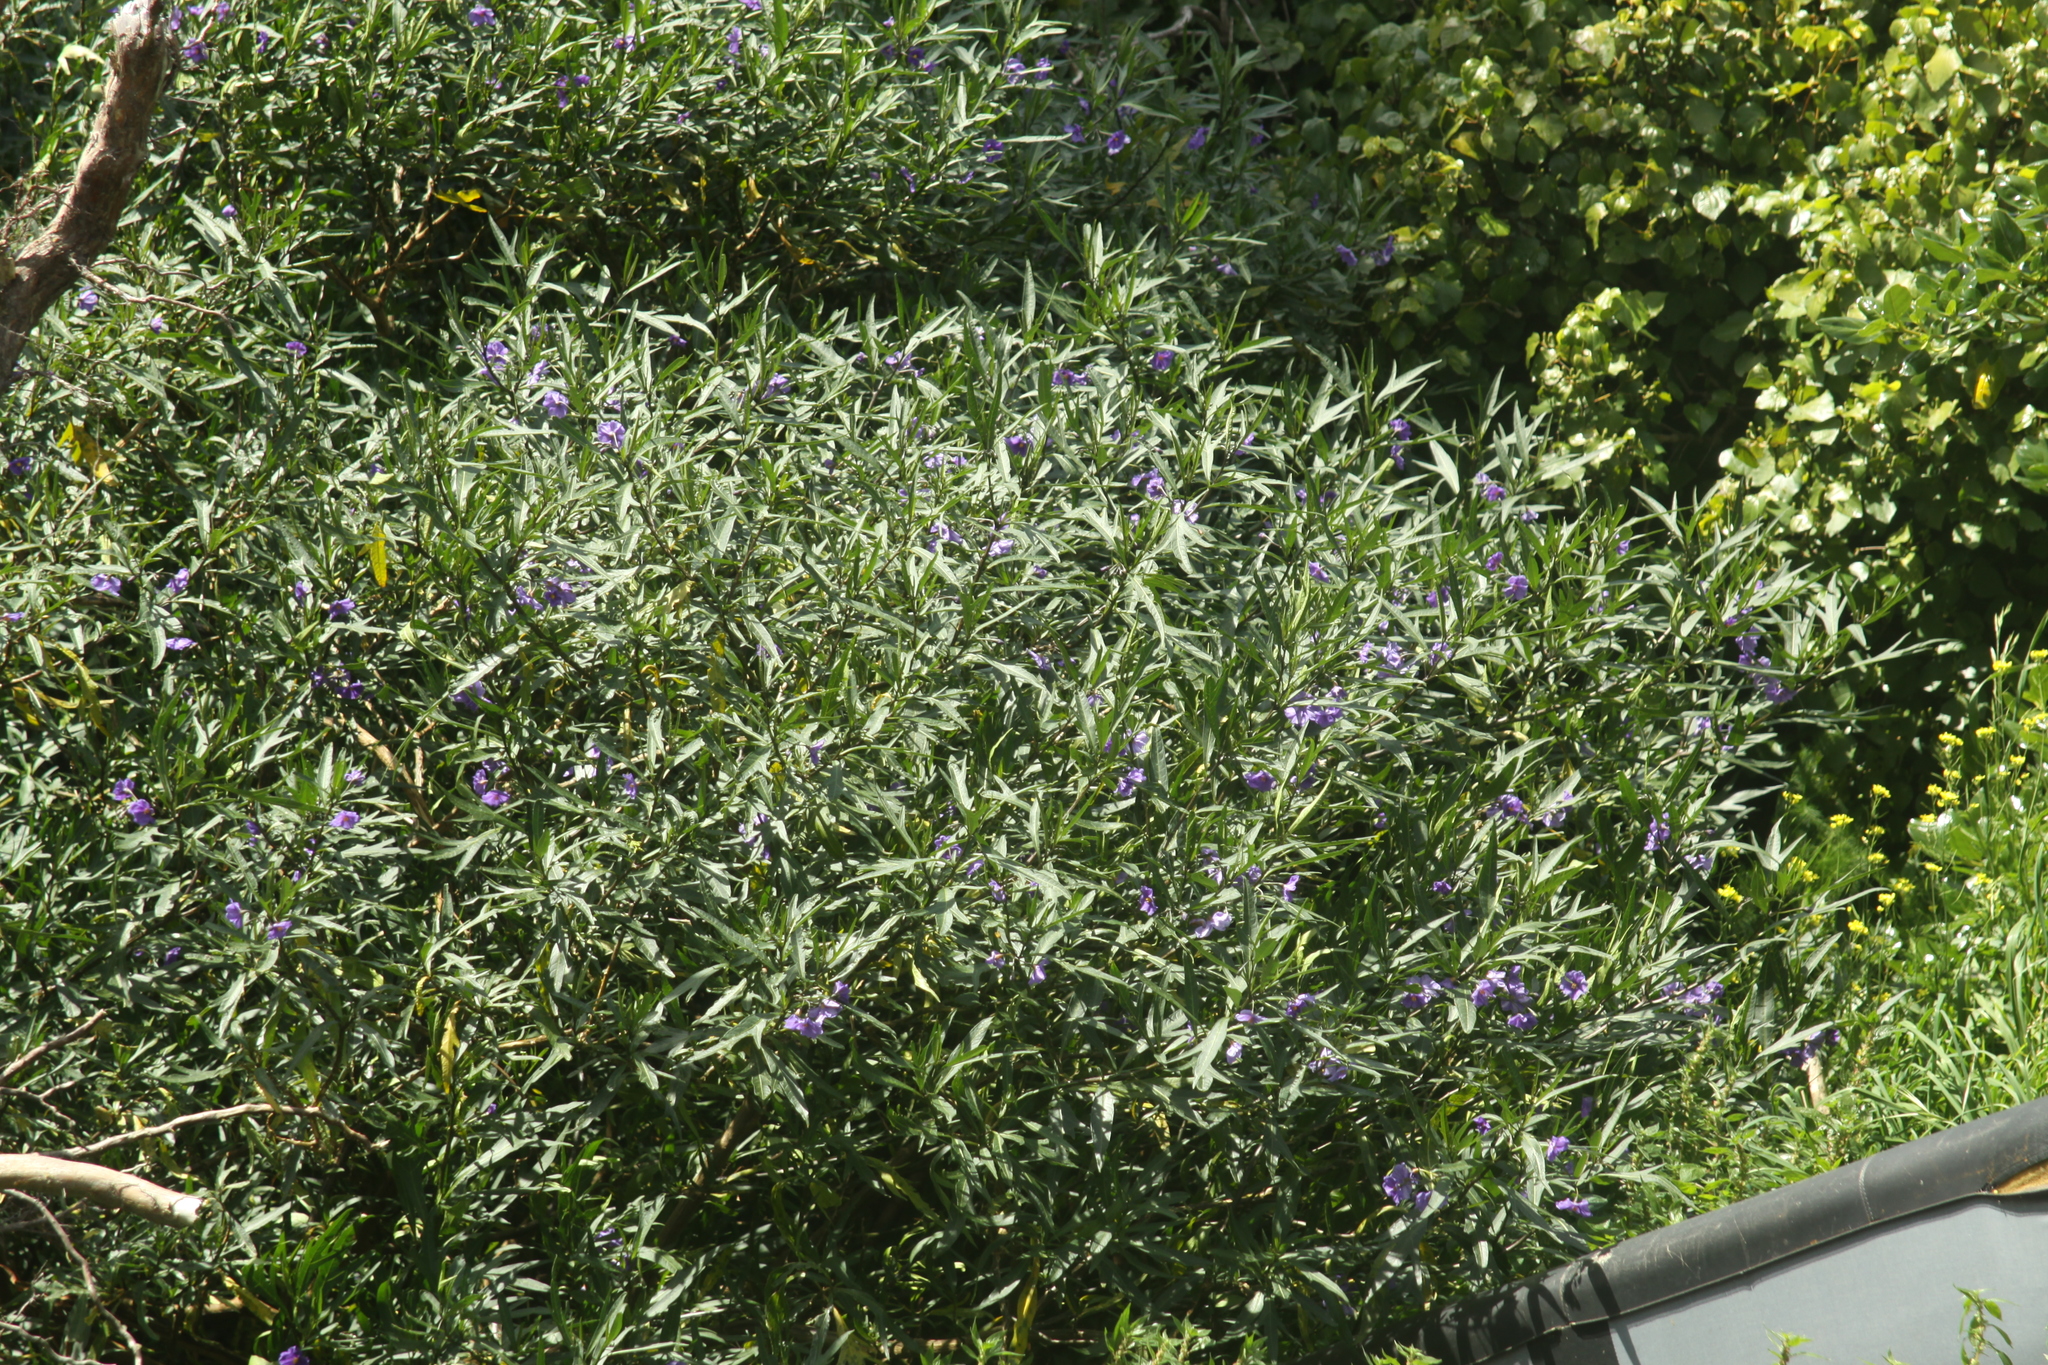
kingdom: Plantae
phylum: Tracheophyta
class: Magnoliopsida
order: Solanales
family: Solanaceae
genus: Solanum
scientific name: Solanum laciniatum
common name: Kangaroo-apple
